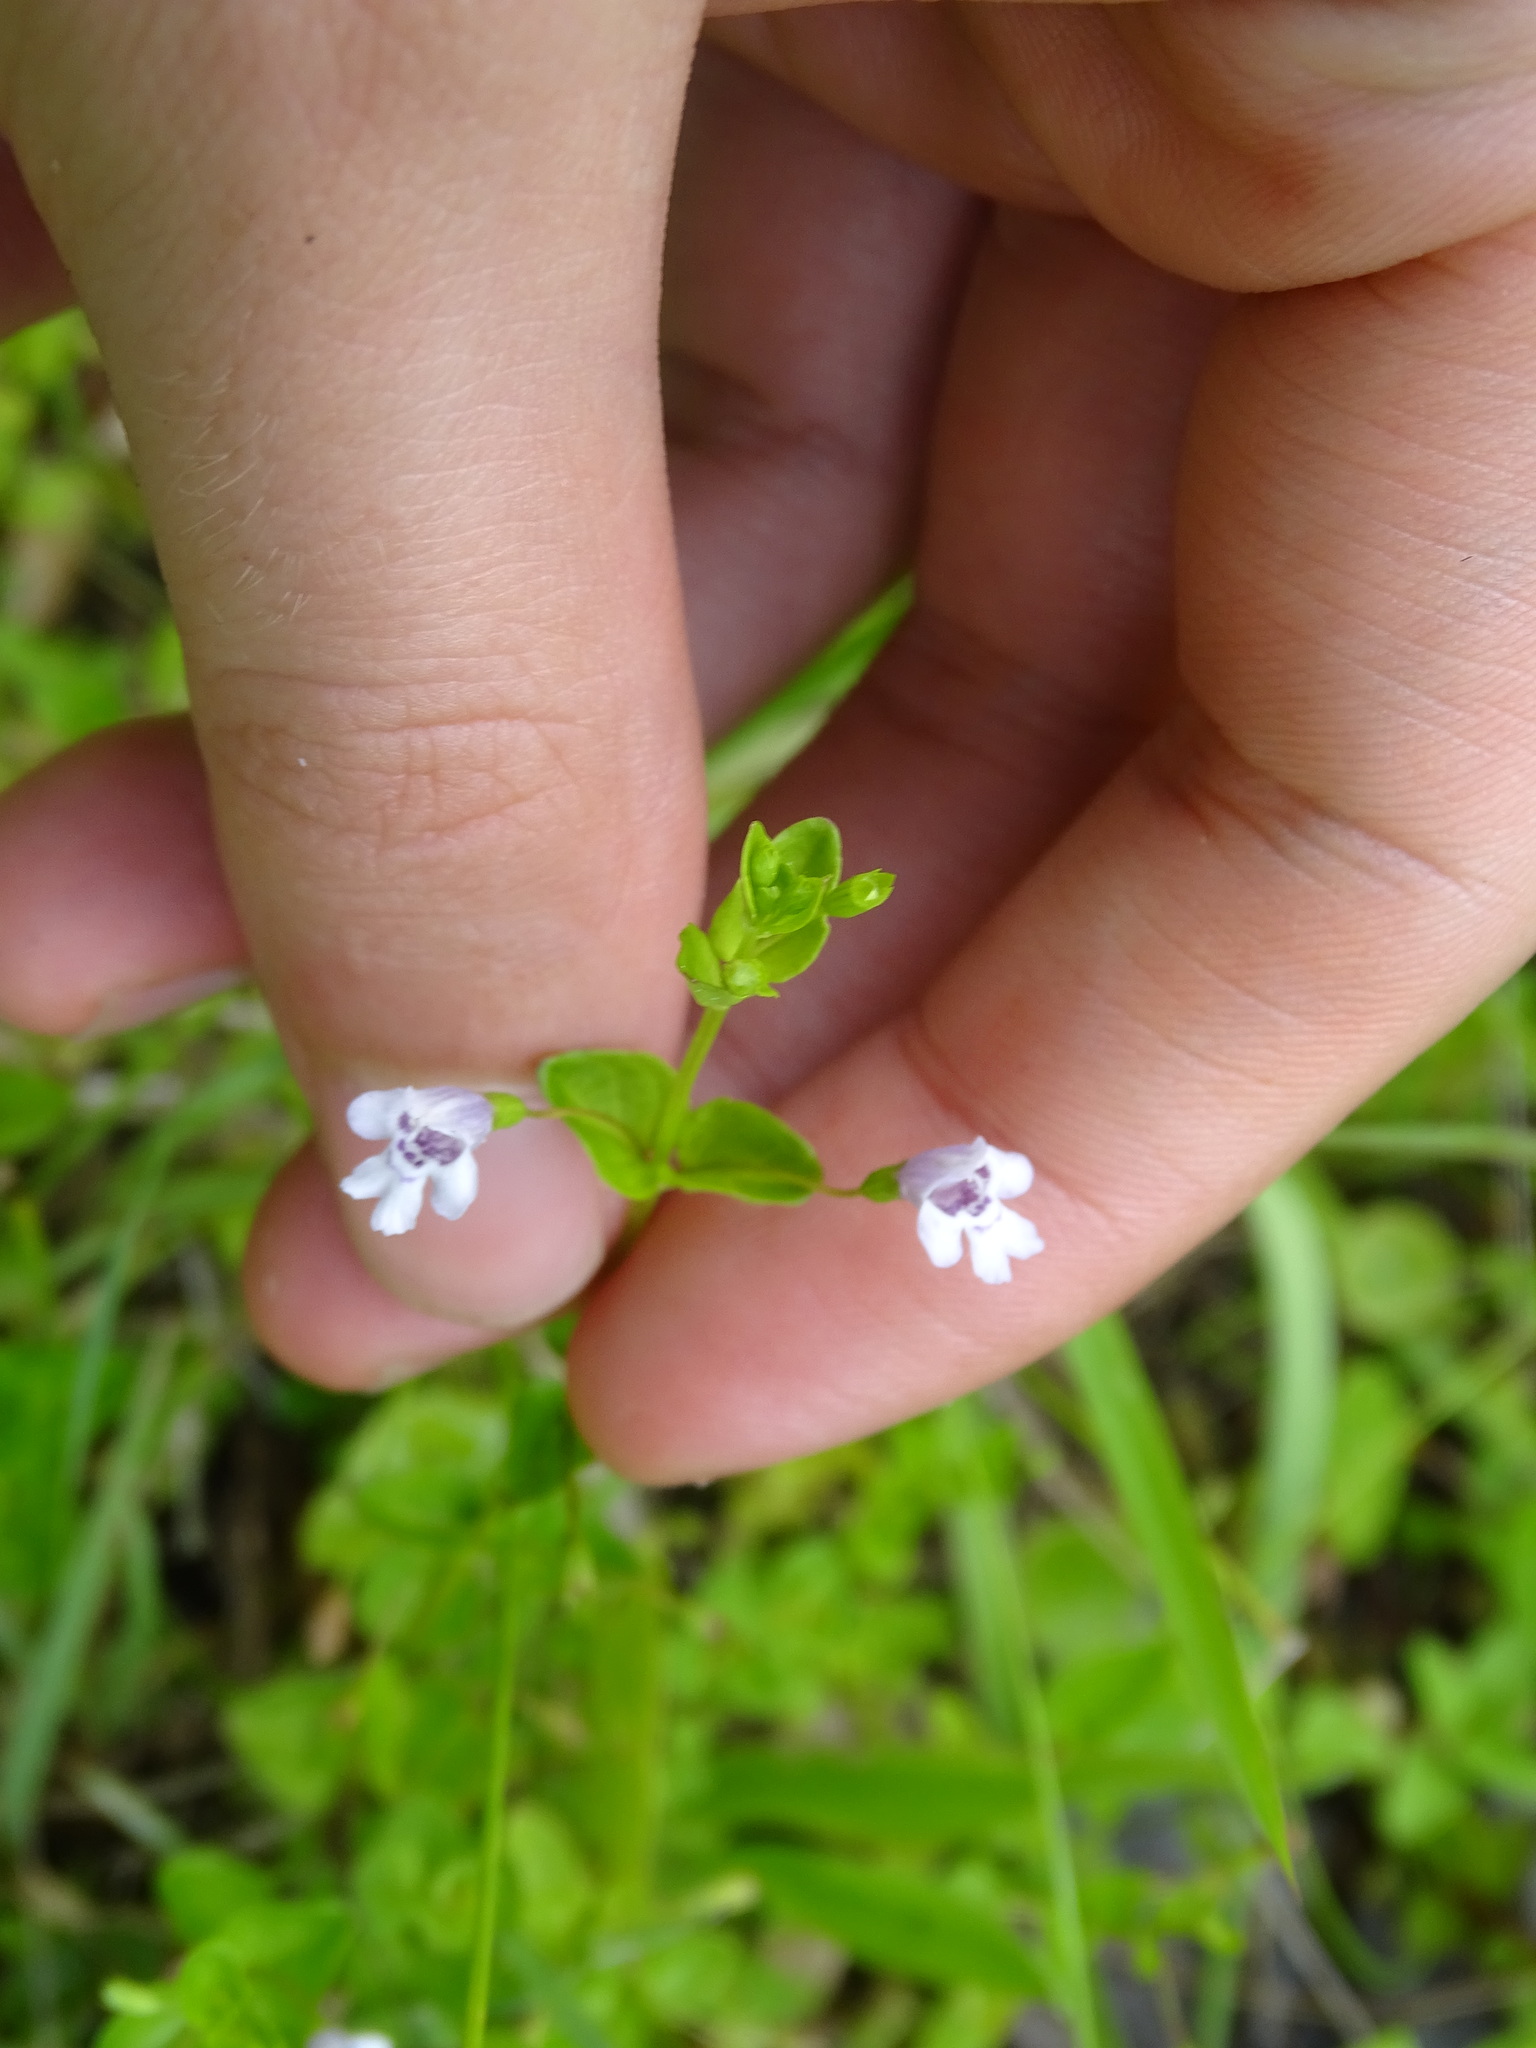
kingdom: Plantae
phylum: Tracheophyta
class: Magnoliopsida
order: Lamiales
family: Lamiaceae
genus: Clinopodium
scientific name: Clinopodium brownei
